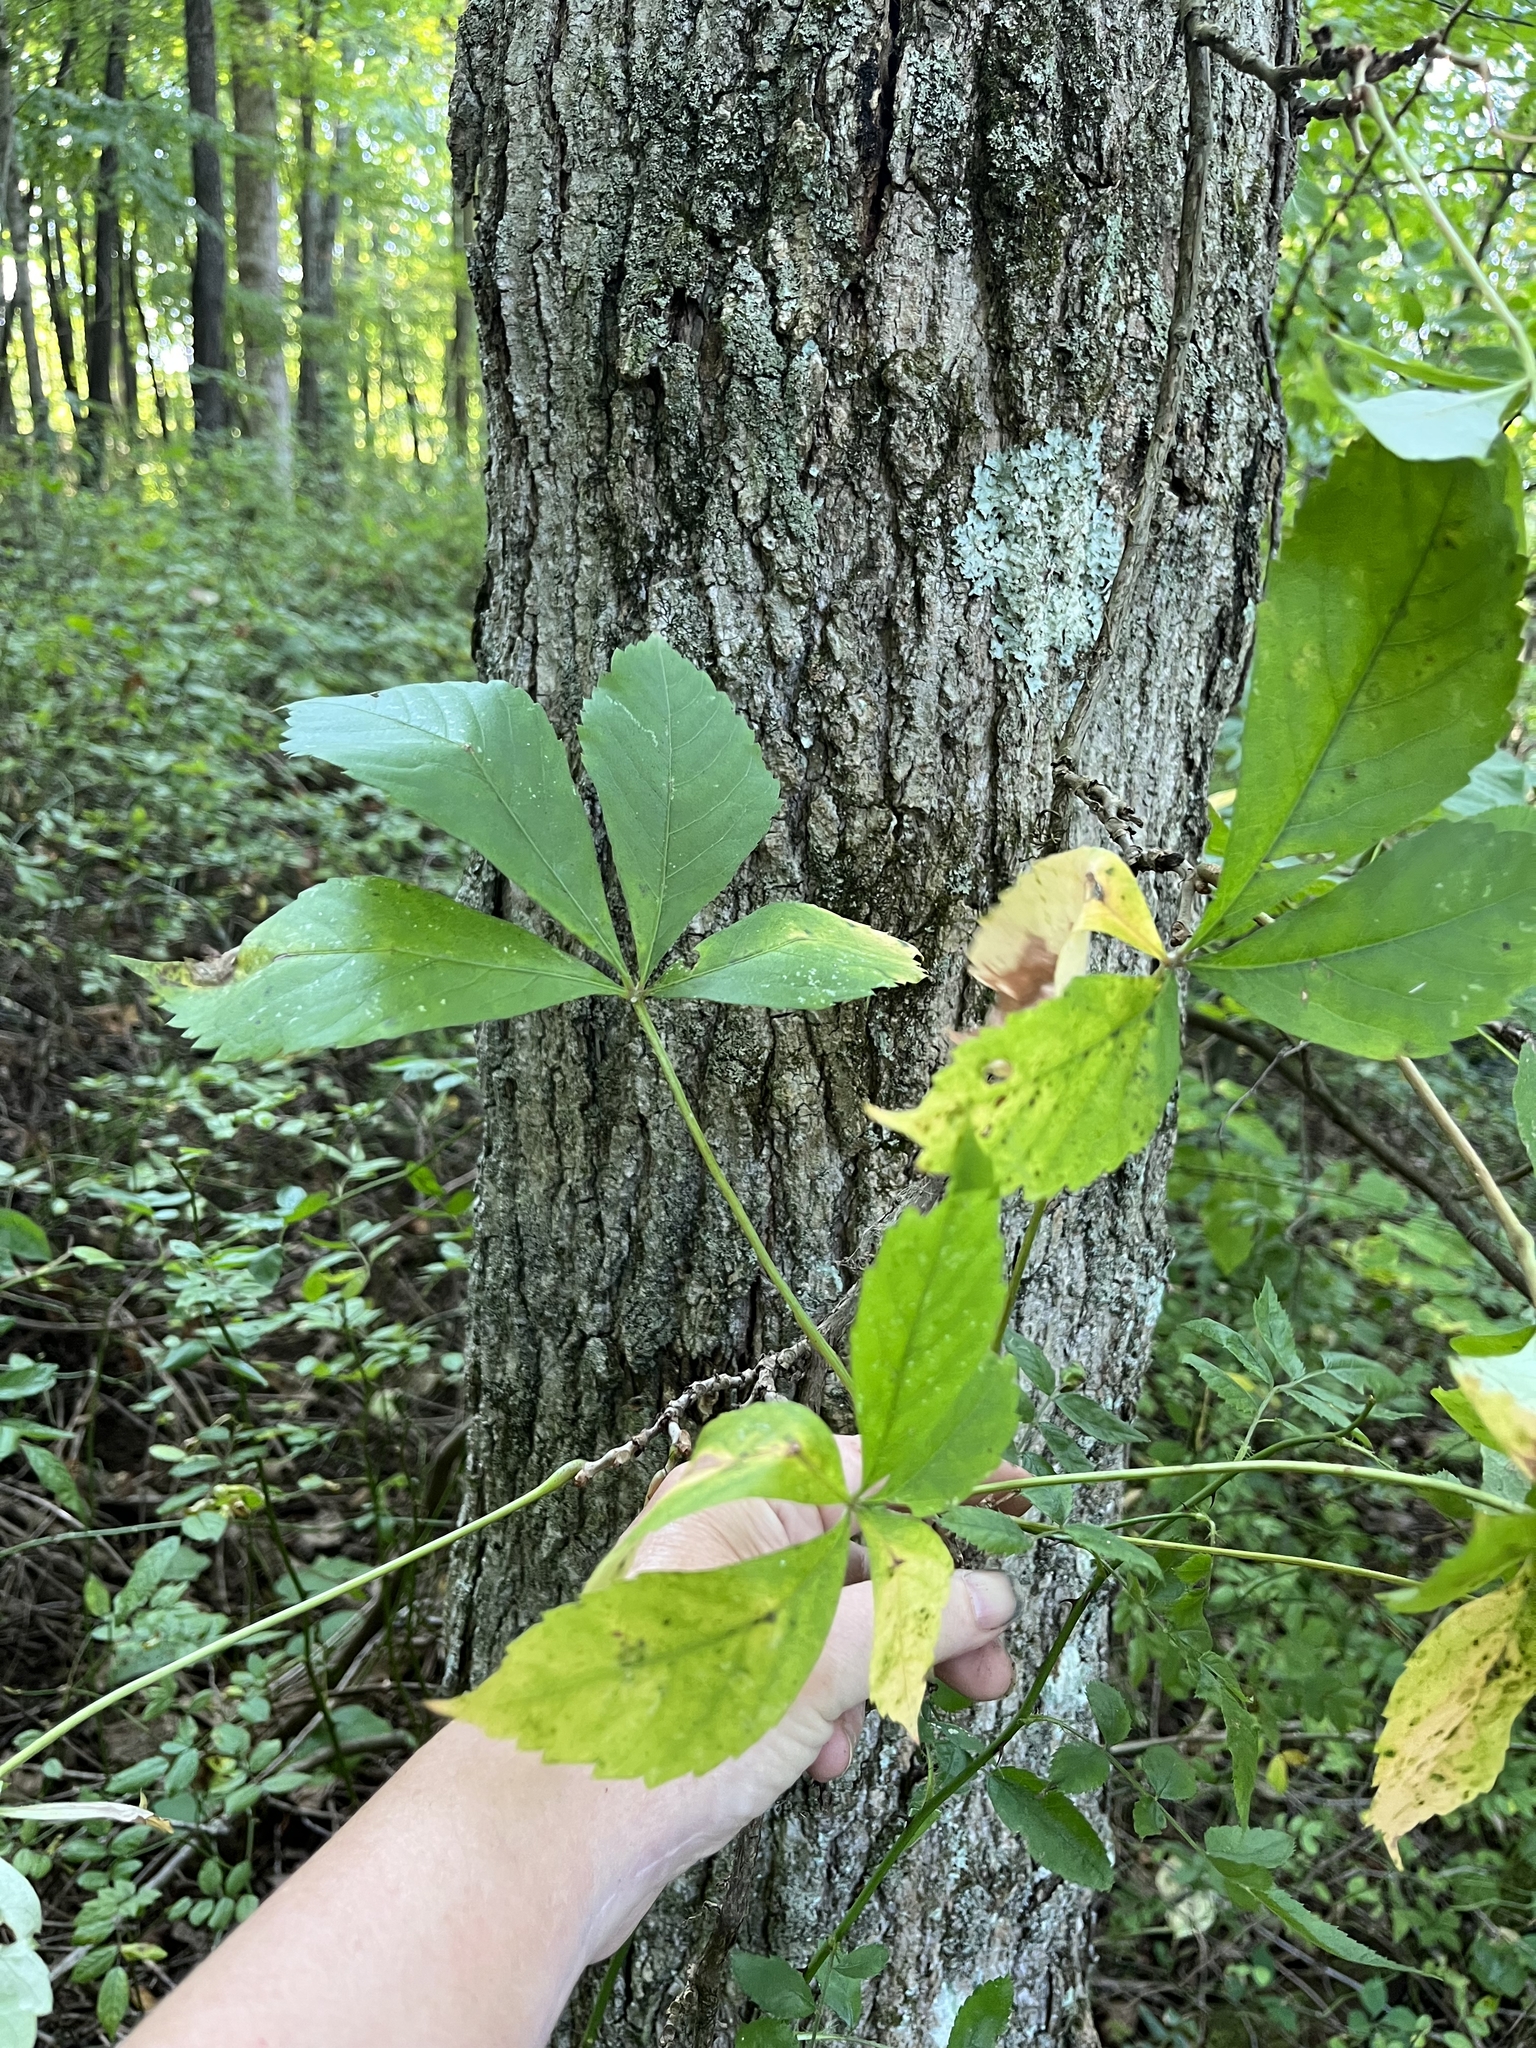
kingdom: Plantae
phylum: Tracheophyta
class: Magnoliopsida
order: Vitales
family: Vitaceae
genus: Parthenocissus
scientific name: Parthenocissus quinquefolia
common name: Virginia-creeper
